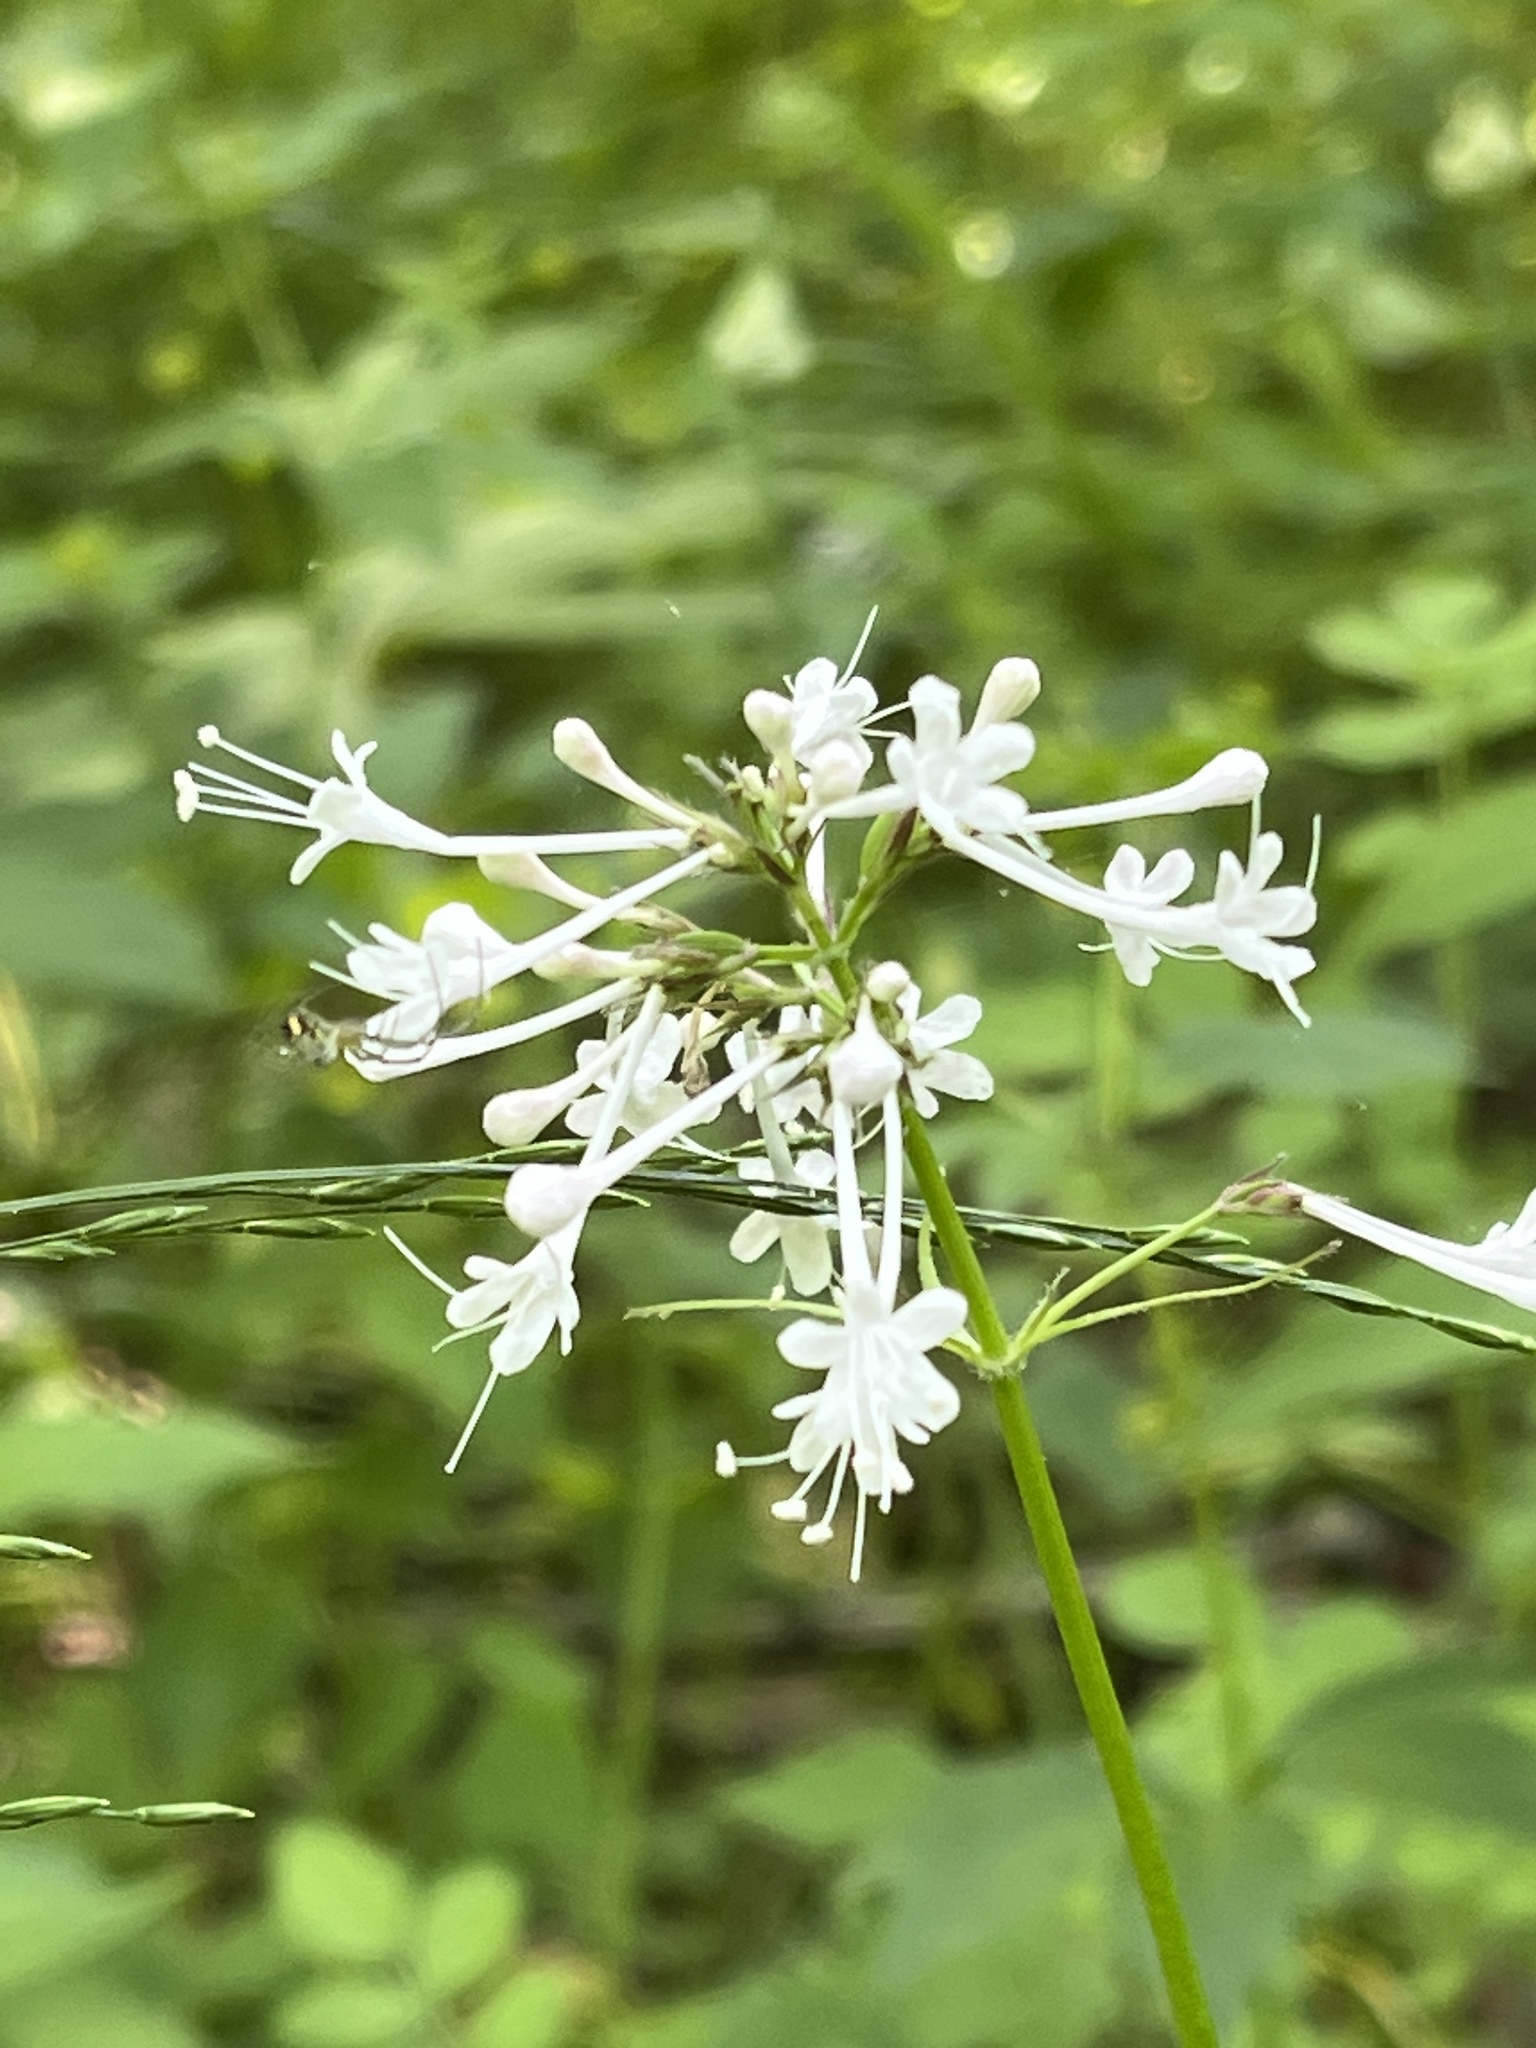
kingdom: Plantae
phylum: Tracheophyta
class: Magnoliopsida
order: Dipsacales
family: Caprifoliaceae
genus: Valeriana
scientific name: Valeriana pauciflora
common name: Long-tube valeriana
